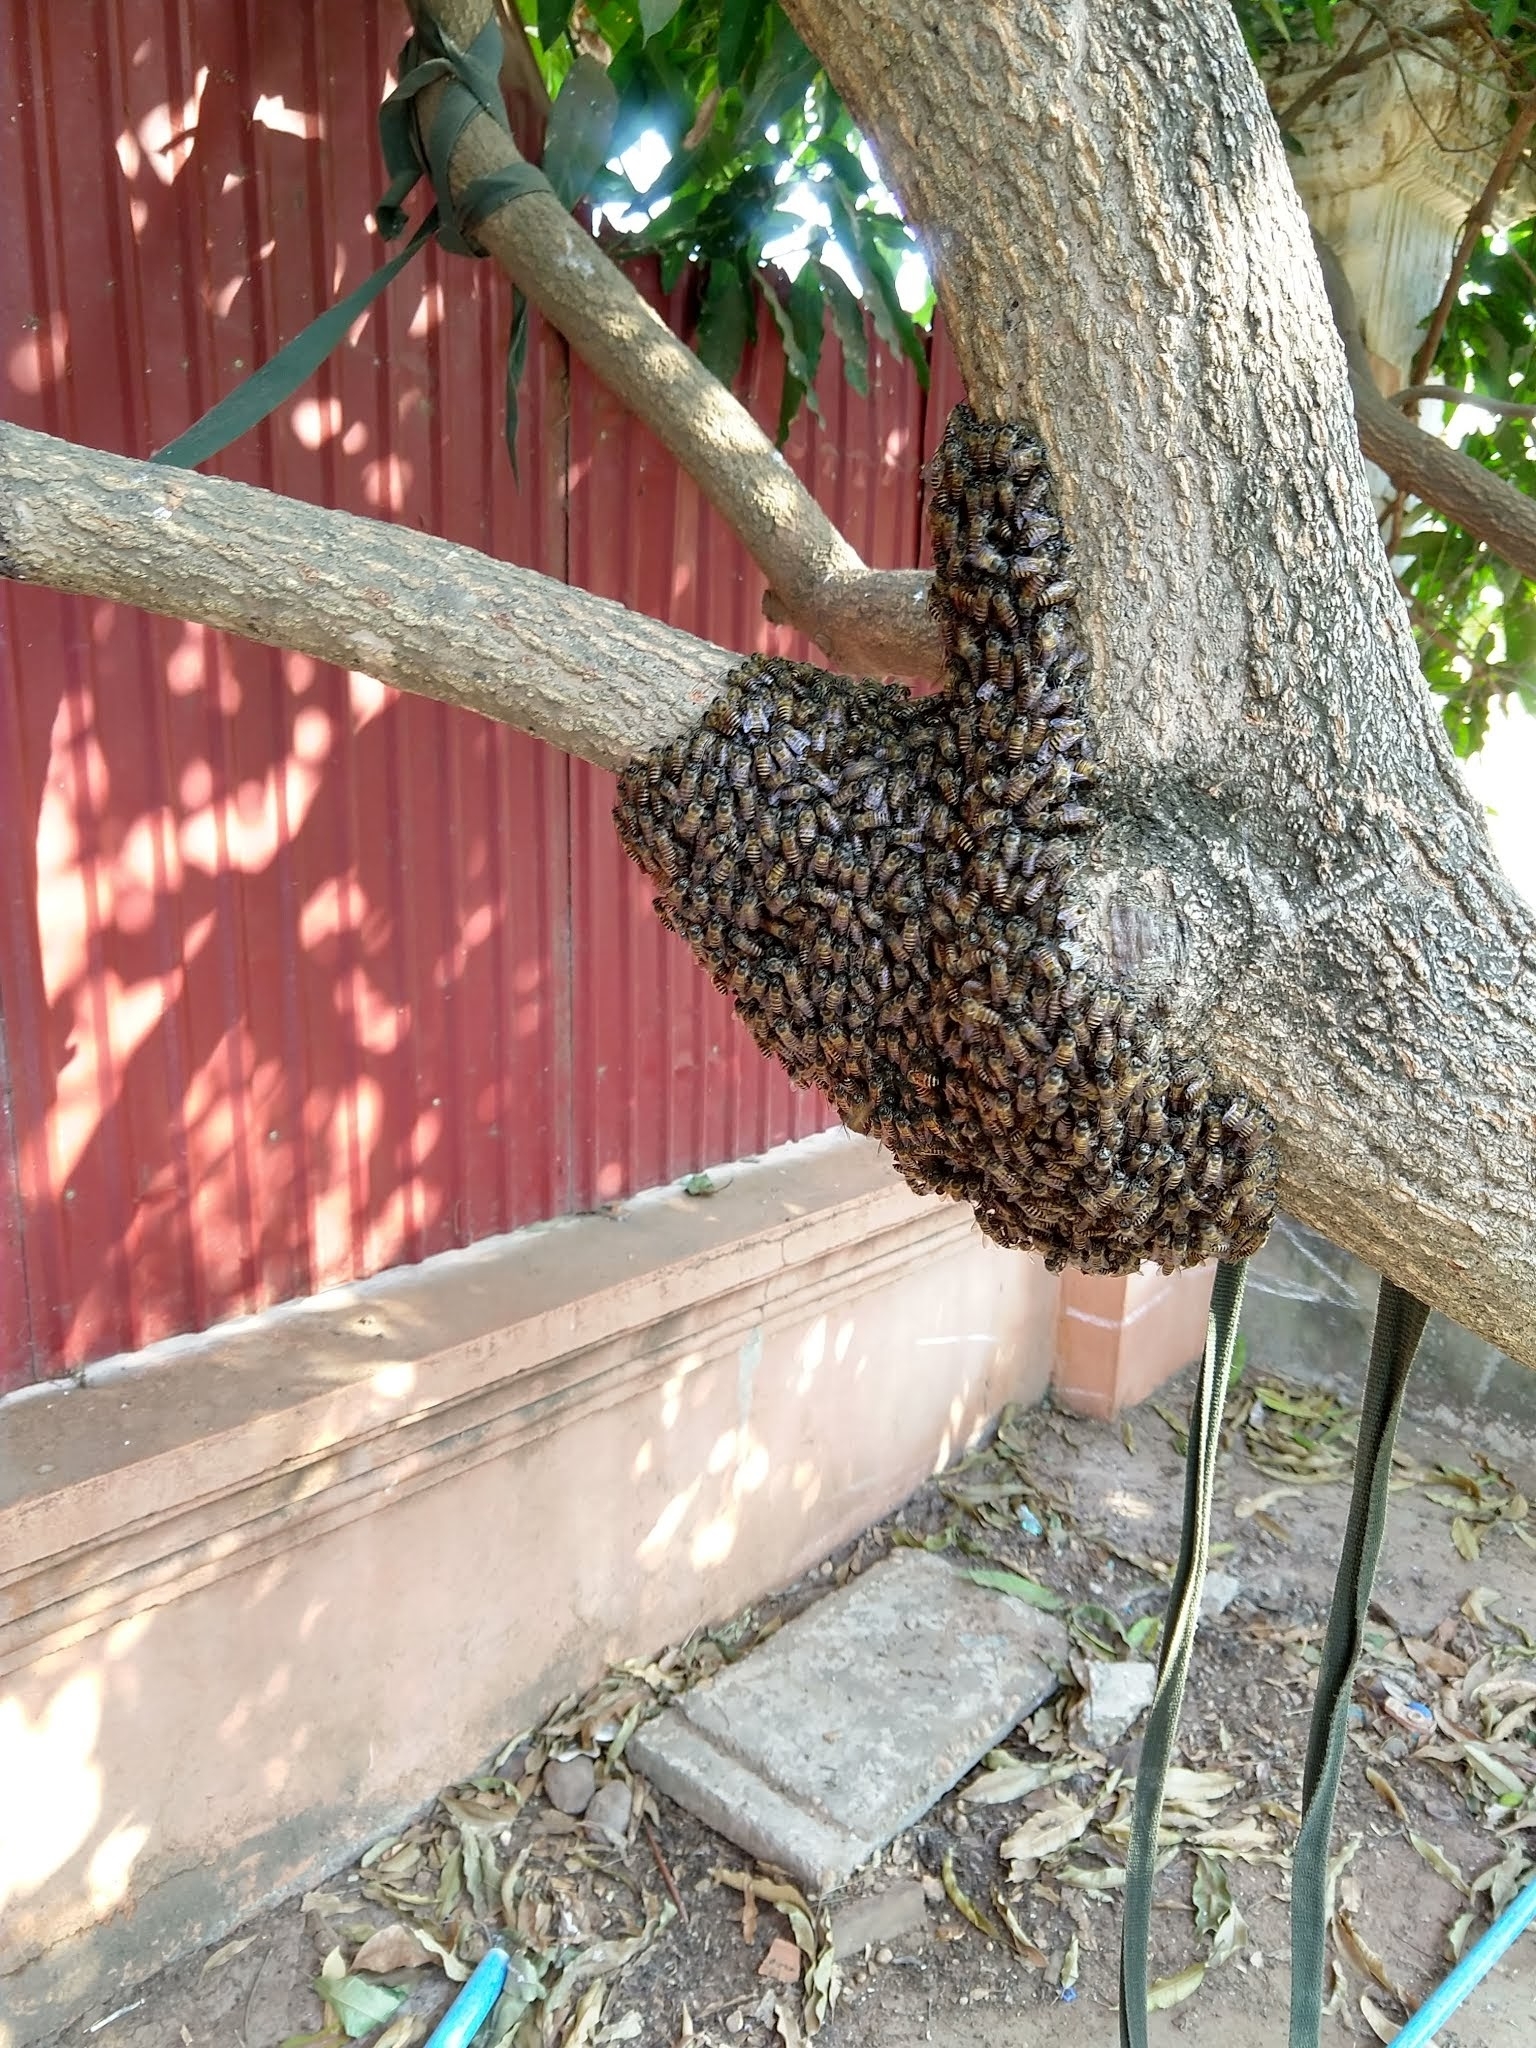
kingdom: Animalia
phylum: Arthropoda
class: Insecta
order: Hymenoptera
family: Apidae
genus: Apis
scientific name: Apis cerana
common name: Honey bee
